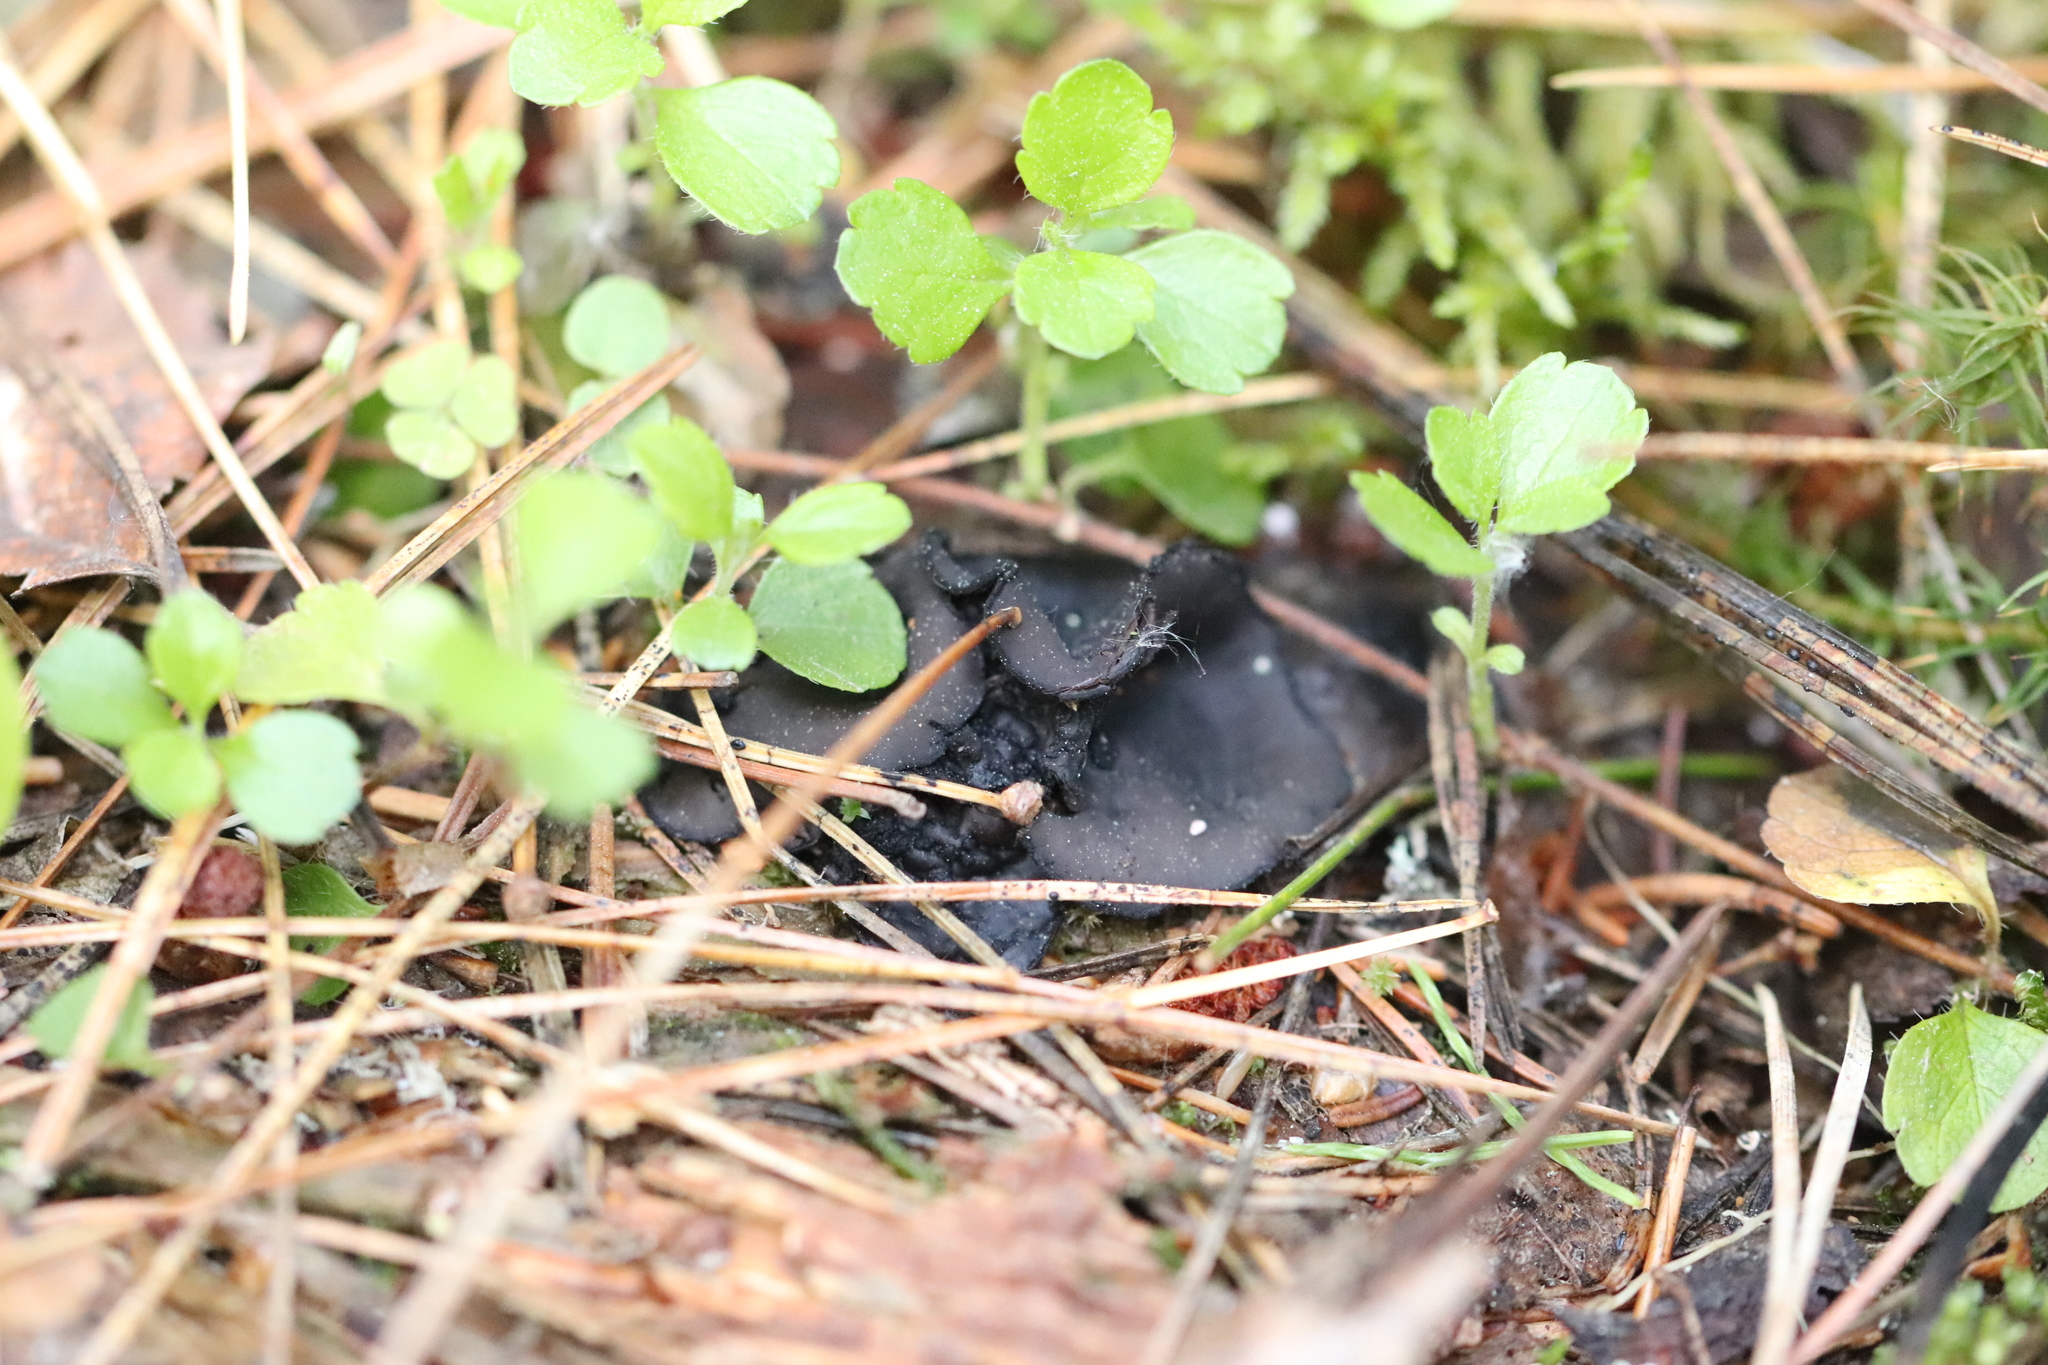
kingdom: Fungi
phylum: Ascomycota
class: Pezizomycetes
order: Pezizales
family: Sarcosomataceae
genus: Pseudoplectania
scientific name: Pseudoplectania nigrella
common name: Ebony cup
